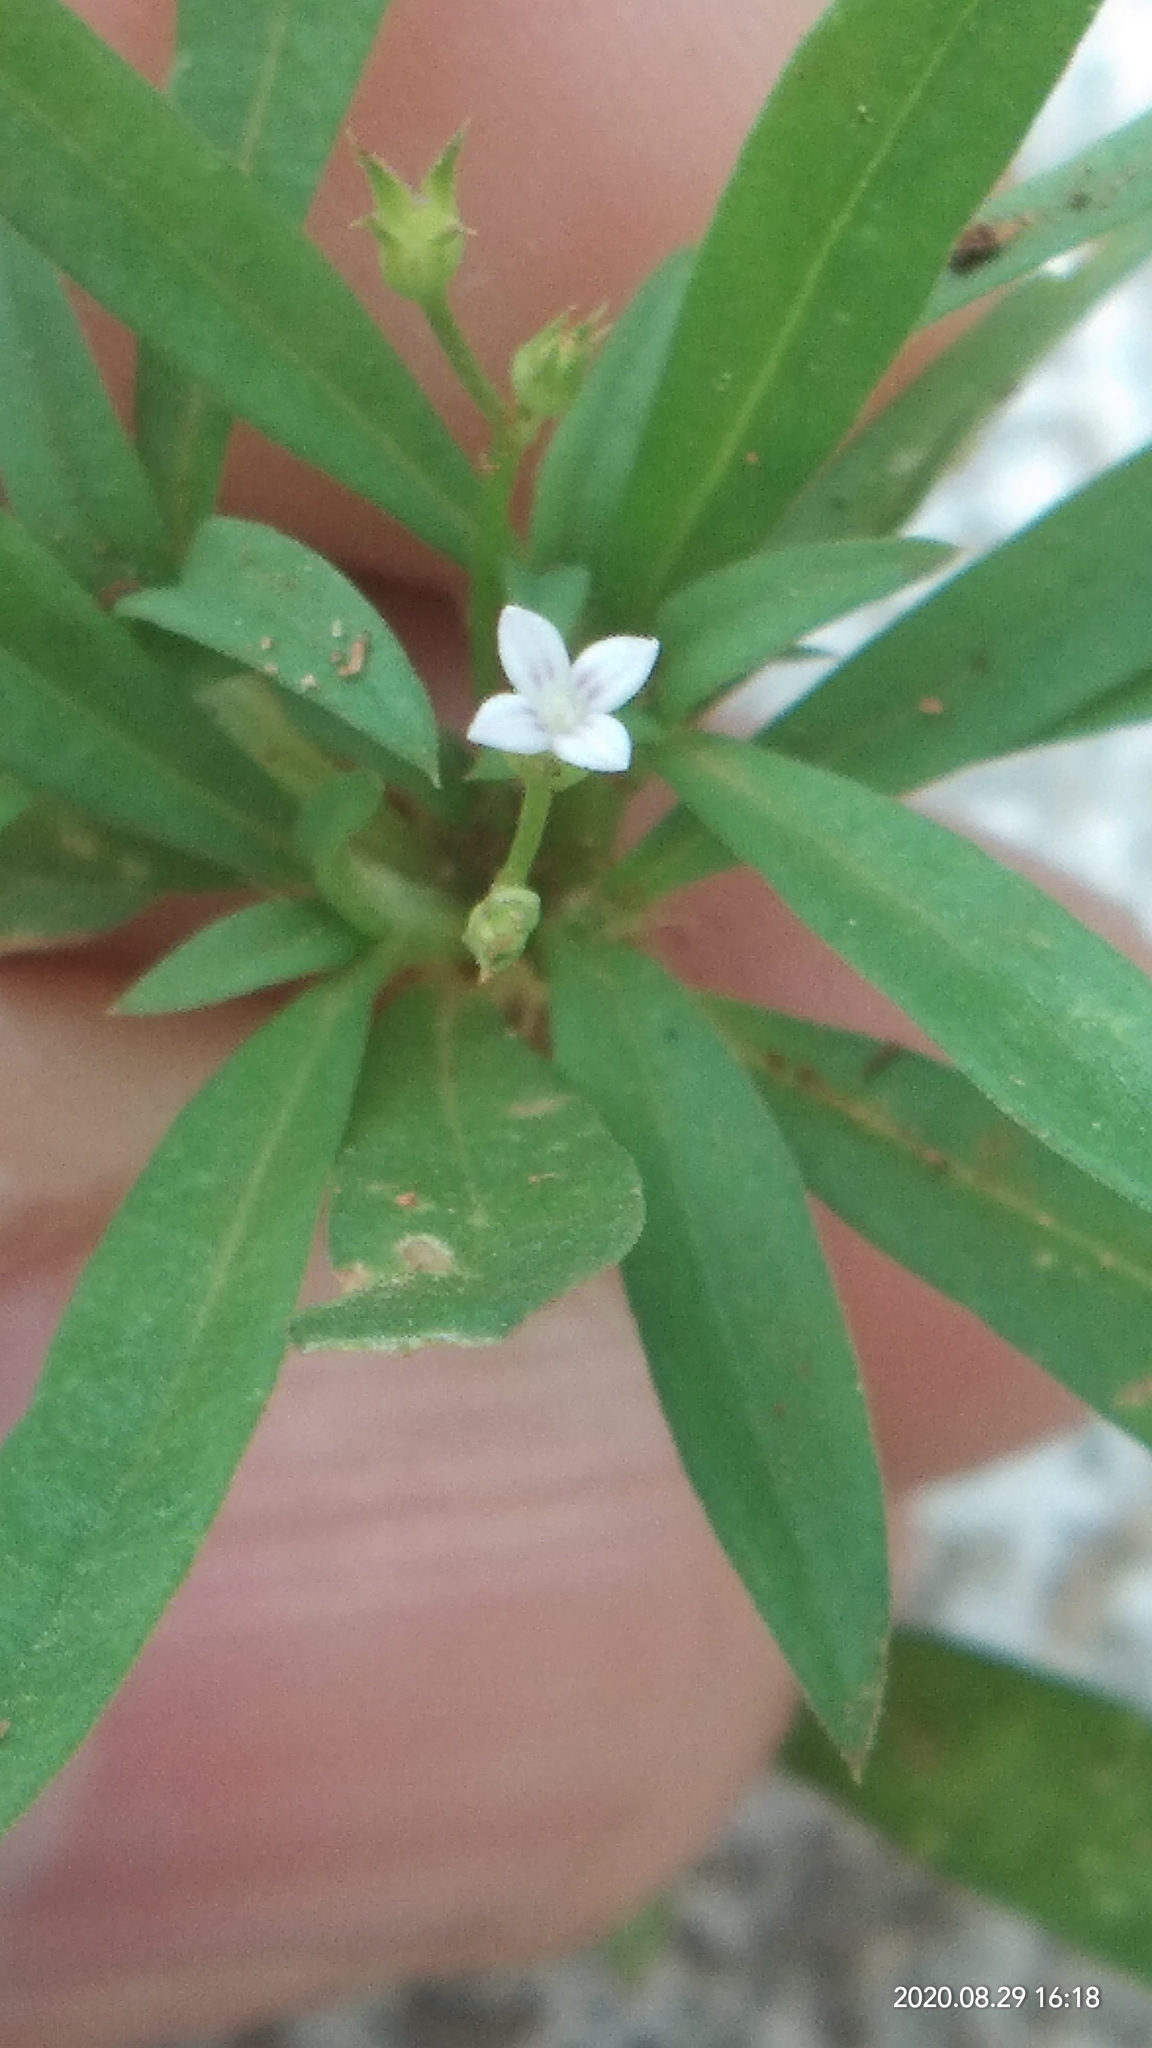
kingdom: Plantae
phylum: Tracheophyta
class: Magnoliopsida
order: Gentianales
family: Rubiaceae
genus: Oldenlandia
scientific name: Oldenlandia corymbosa
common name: Flat-top mille graines
